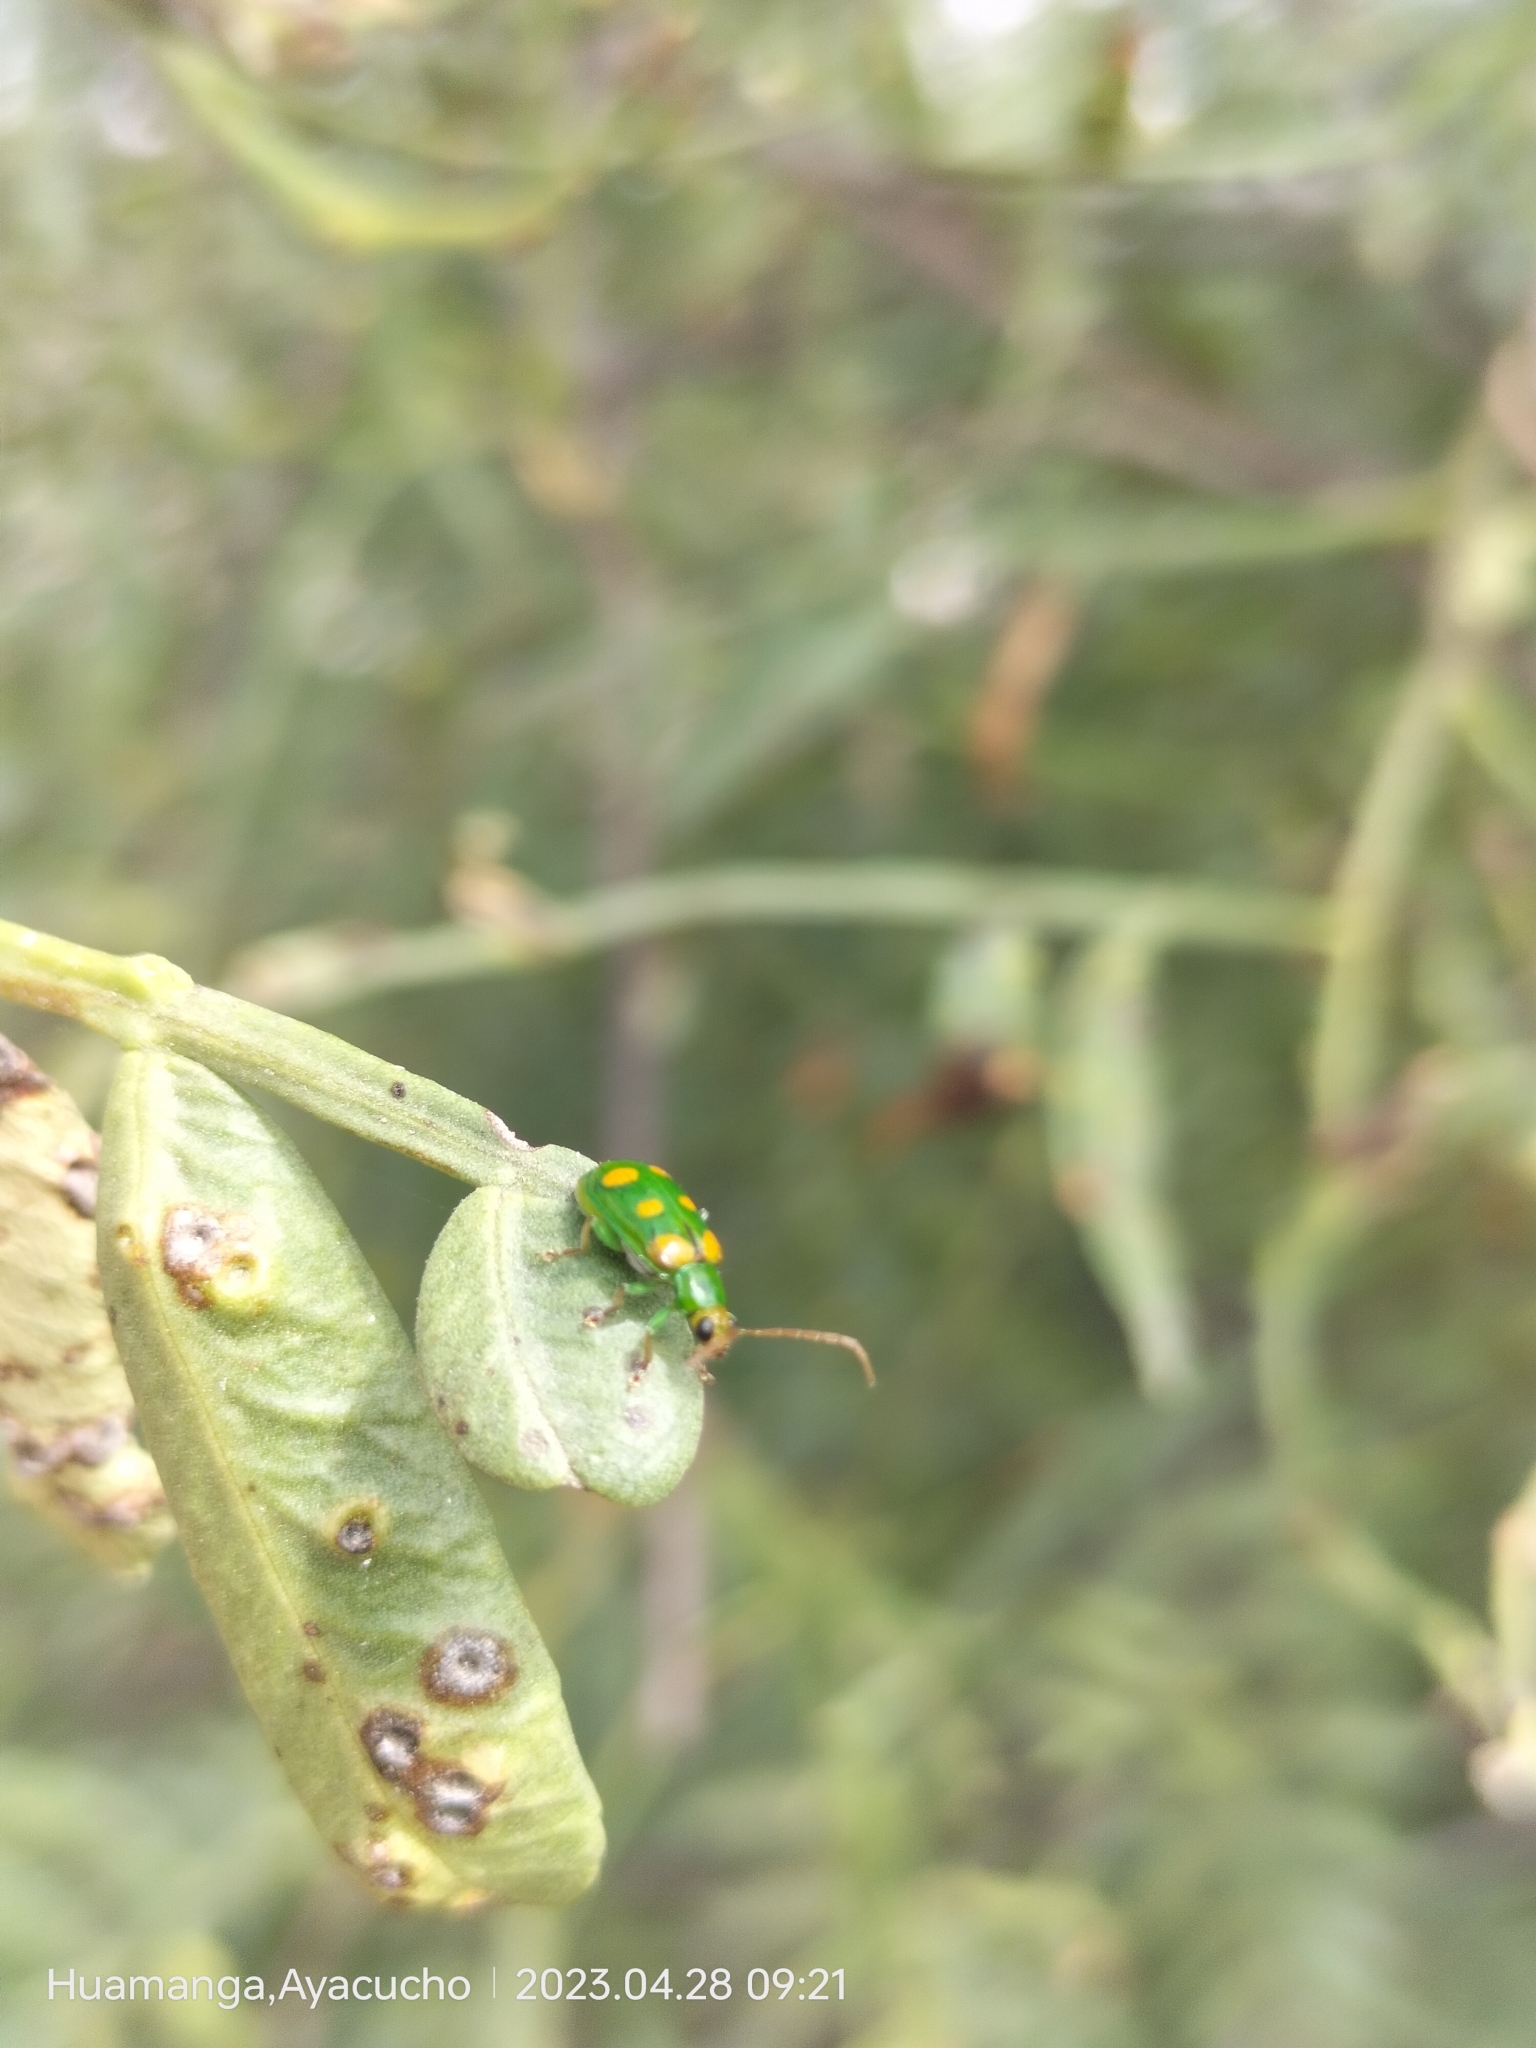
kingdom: Animalia
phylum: Arthropoda
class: Insecta
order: Coleoptera
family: Chrysomelidae
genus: Diabrotica
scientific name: Diabrotica speciosa
